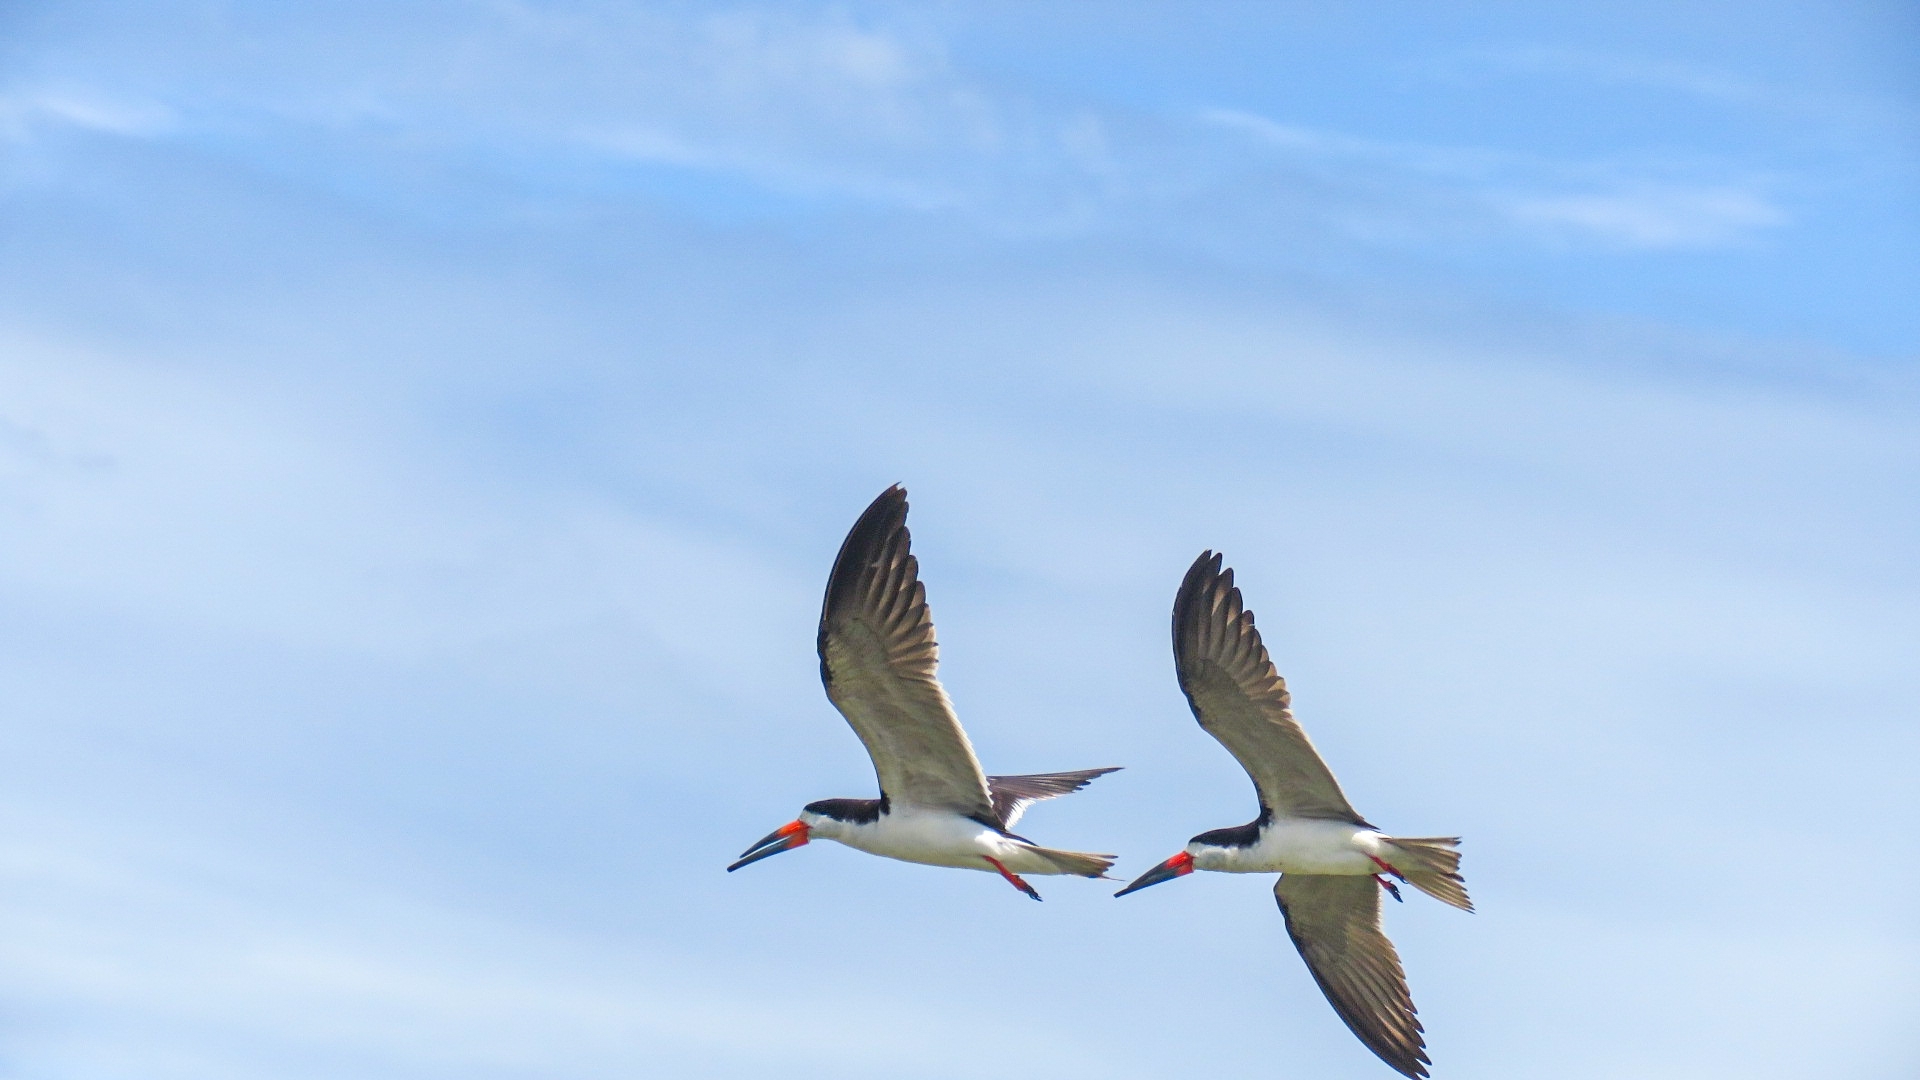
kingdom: Animalia
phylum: Chordata
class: Aves
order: Charadriiformes
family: Laridae
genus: Rynchops
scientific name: Rynchops niger
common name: Black skimmer
